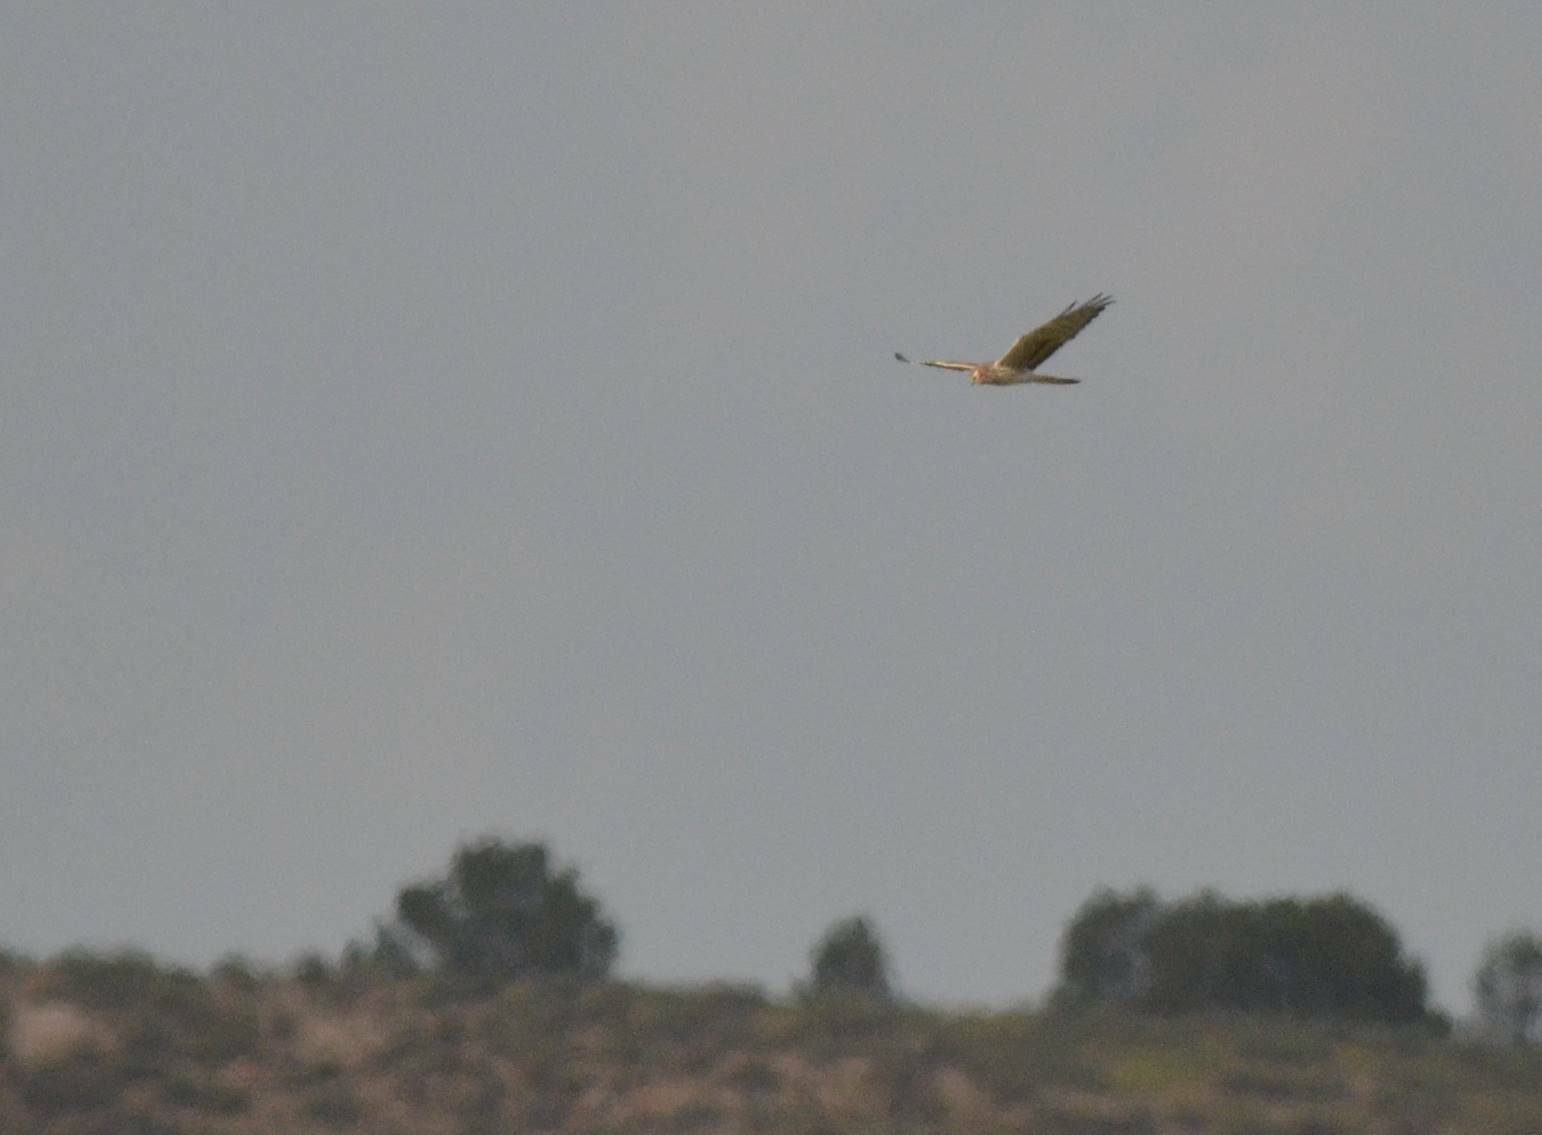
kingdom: Animalia
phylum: Chordata
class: Aves
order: Accipitriformes
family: Accipitridae
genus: Circus
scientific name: Circus pygargus
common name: Montagu's harrier
